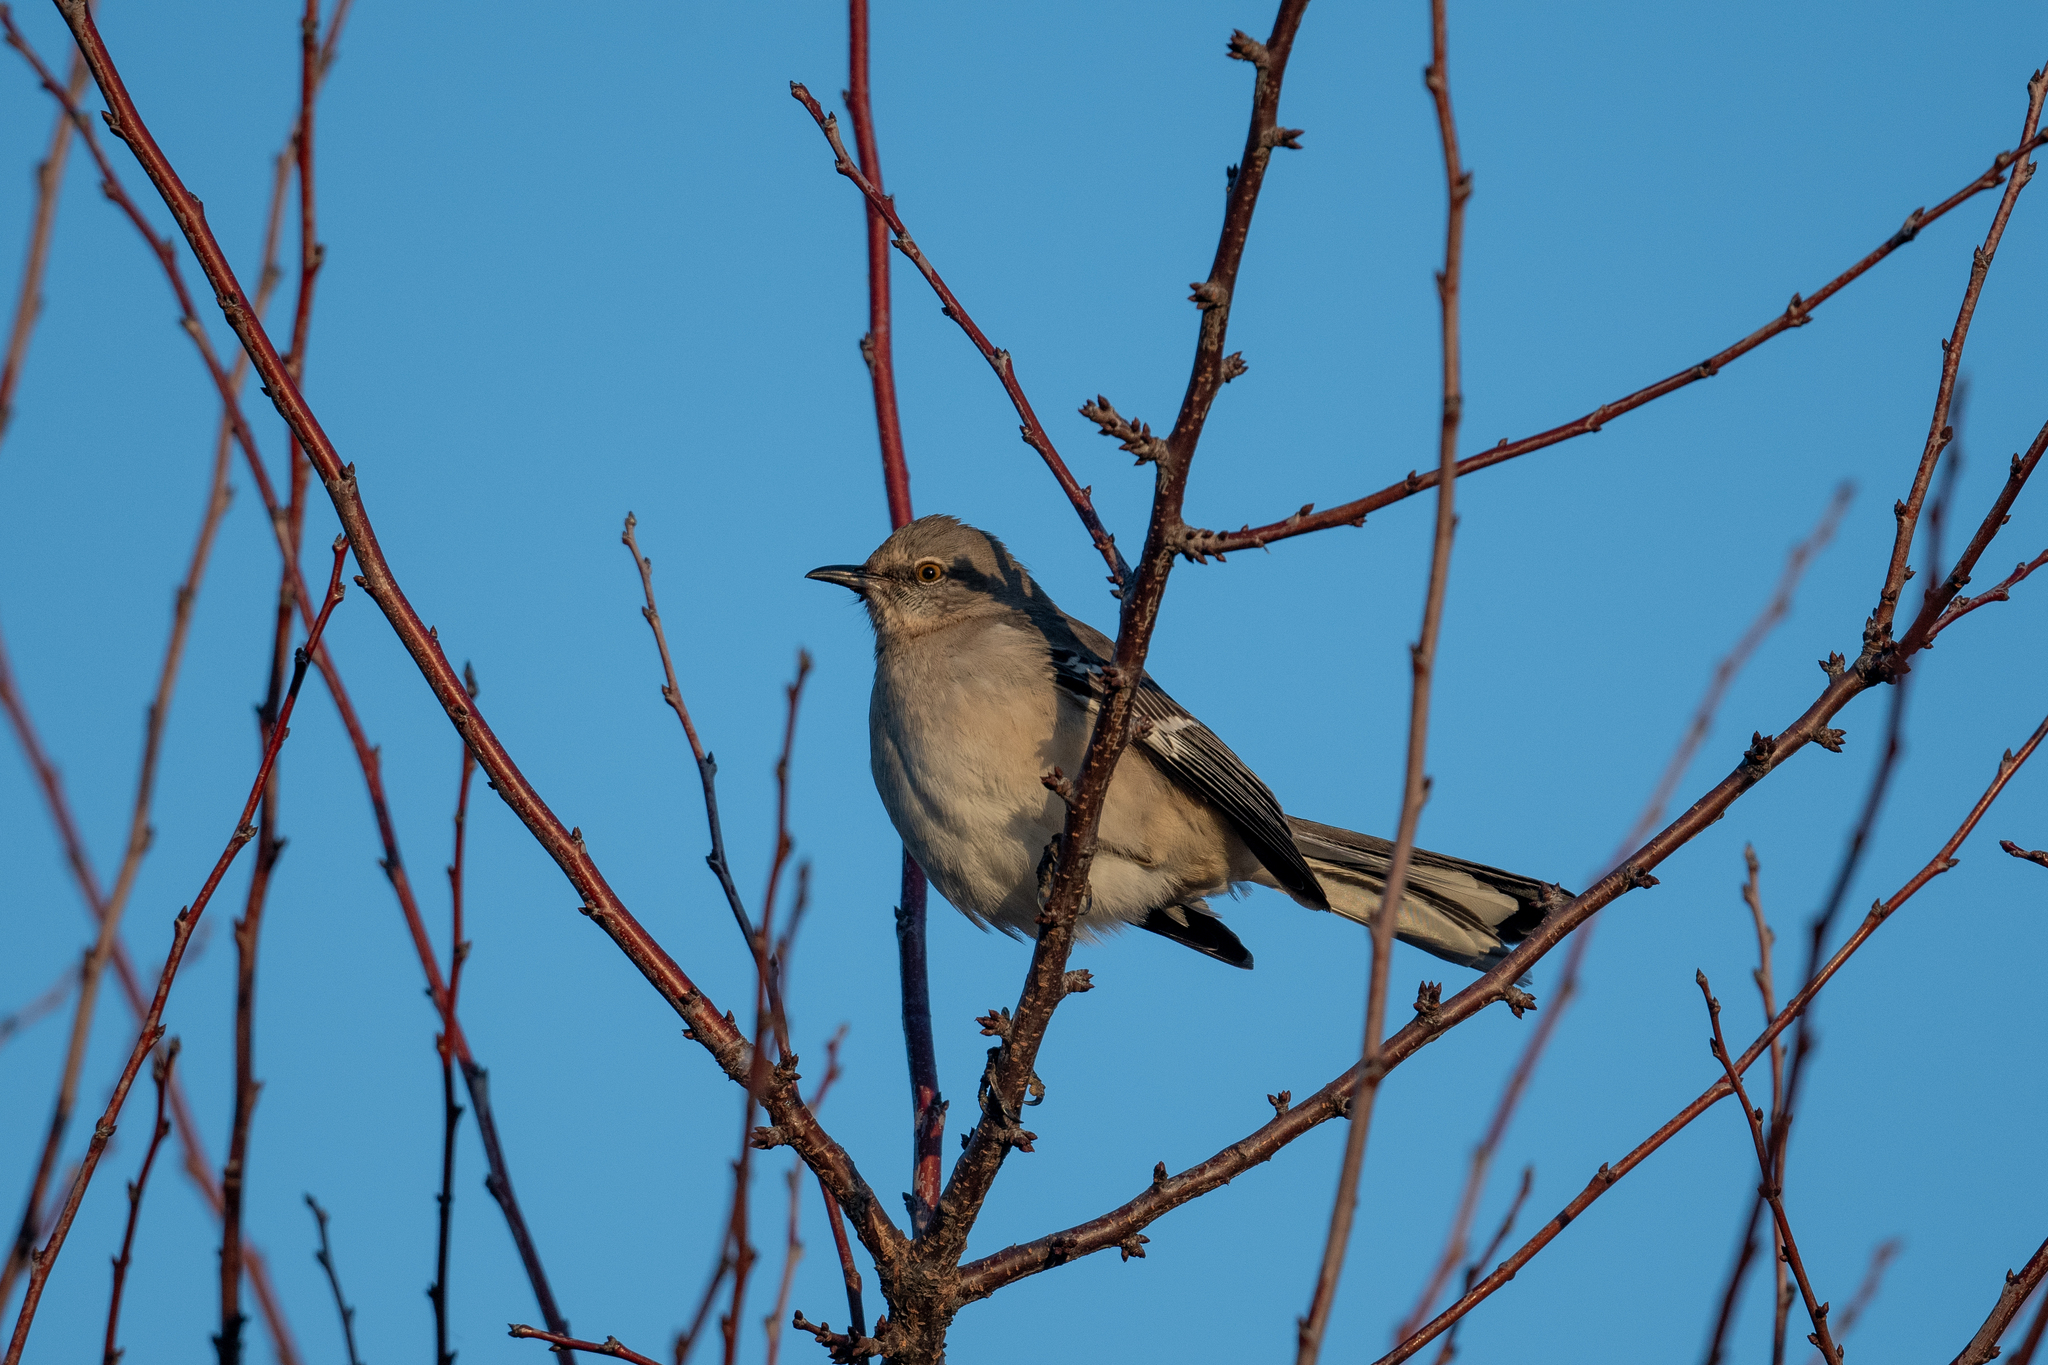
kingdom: Animalia
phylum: Chordata
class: Aves
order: Passeriformes
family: Mimidae
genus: Mimus
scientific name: Mimus polyglottos
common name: Northern mockingbird
